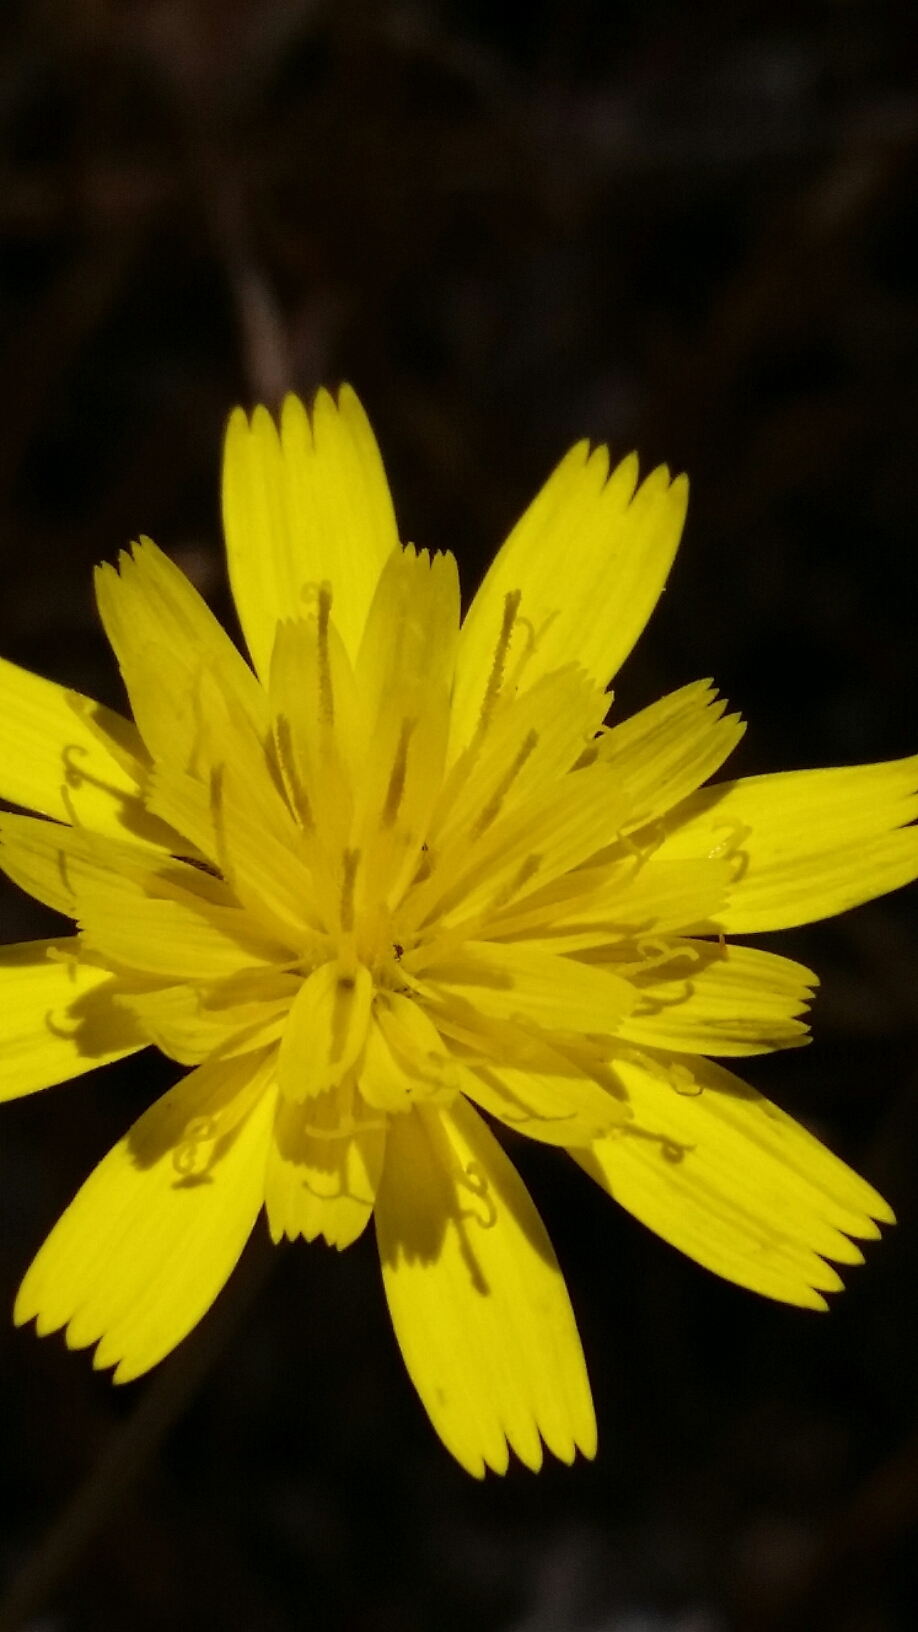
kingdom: Plantae
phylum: Tracheophyta
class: Magnoliopsida
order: Asterales
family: Asteraceae
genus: Hypochaeris
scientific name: Hypochaeris radicata
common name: Flatweed
